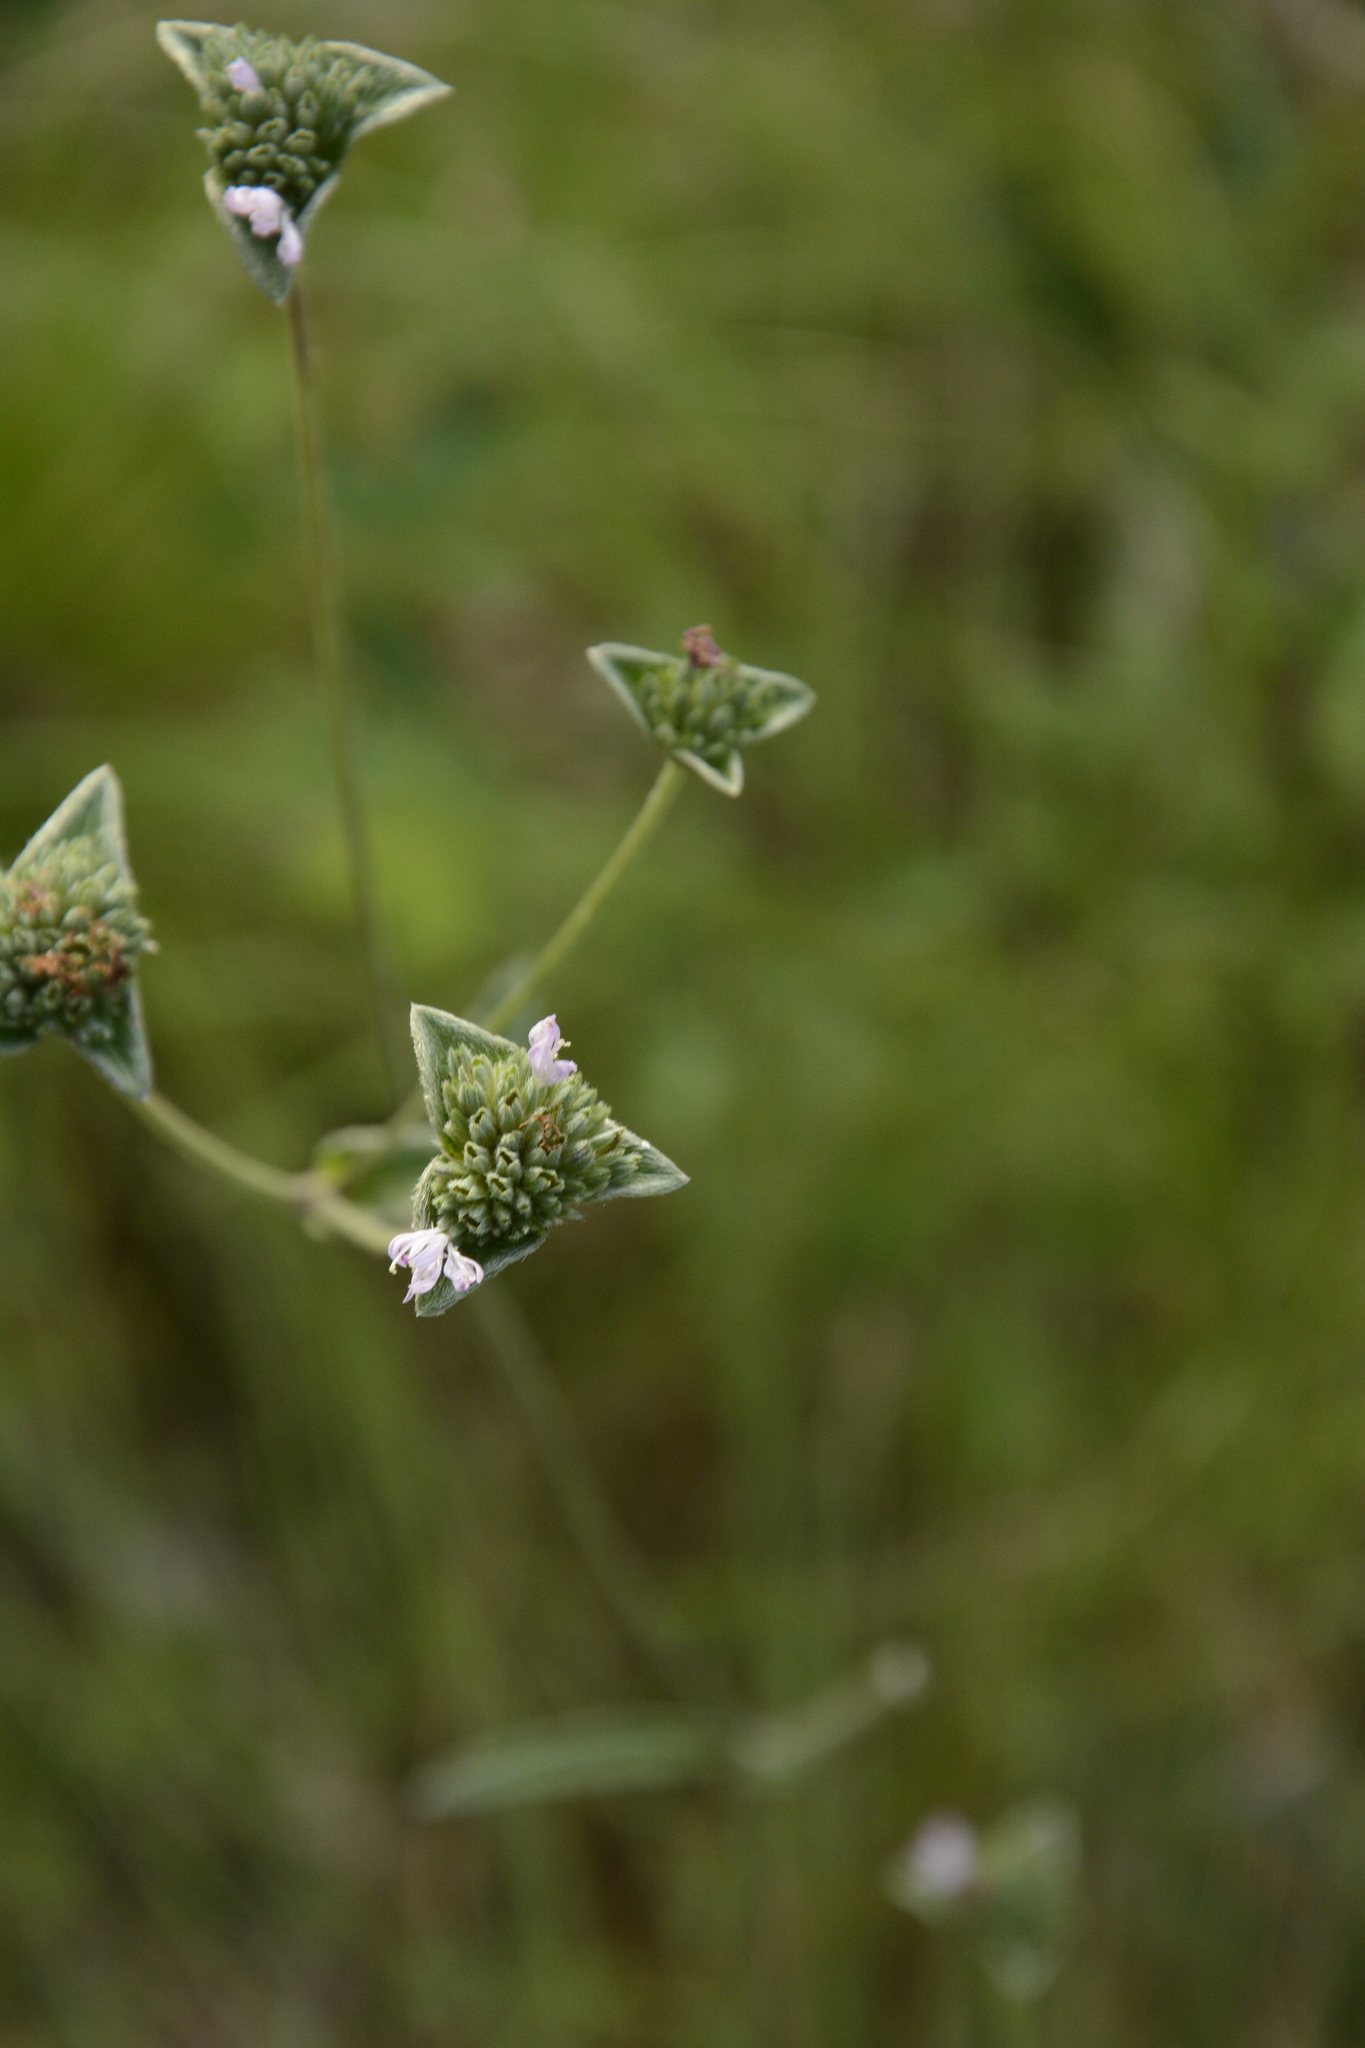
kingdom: Plantae
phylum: Tracheophyta
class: Magnoliopsida
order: Asterales
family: Asteraceae
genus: Elephantopus
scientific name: Elephantopus elatus
